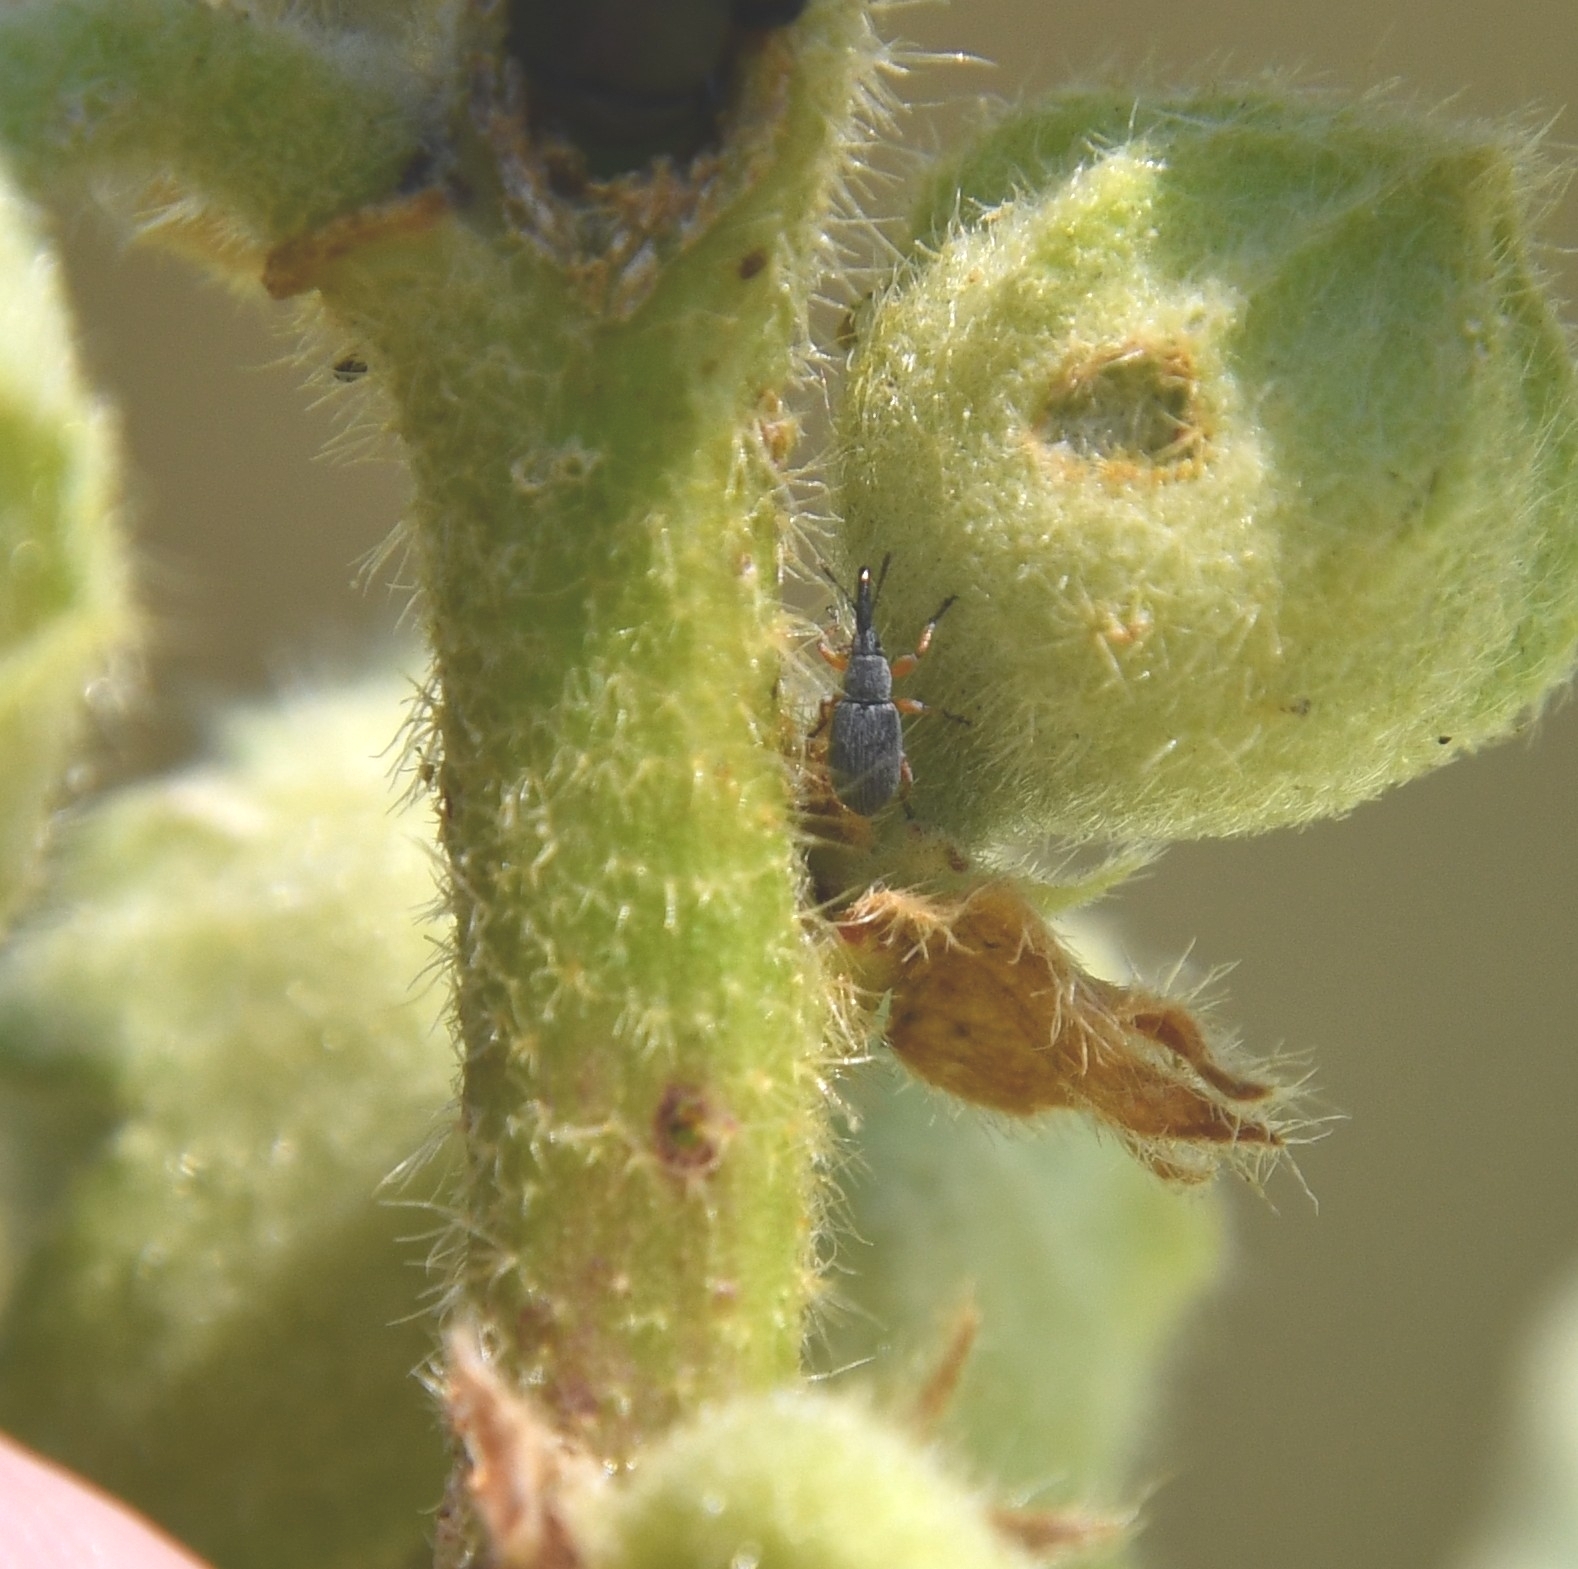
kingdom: Animalia
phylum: Arthropoda
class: Insecta
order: Coleoptera
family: Brentidae
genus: Rhopalapion
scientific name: Rhopalapion longirostre
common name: Hollyhock weevil
